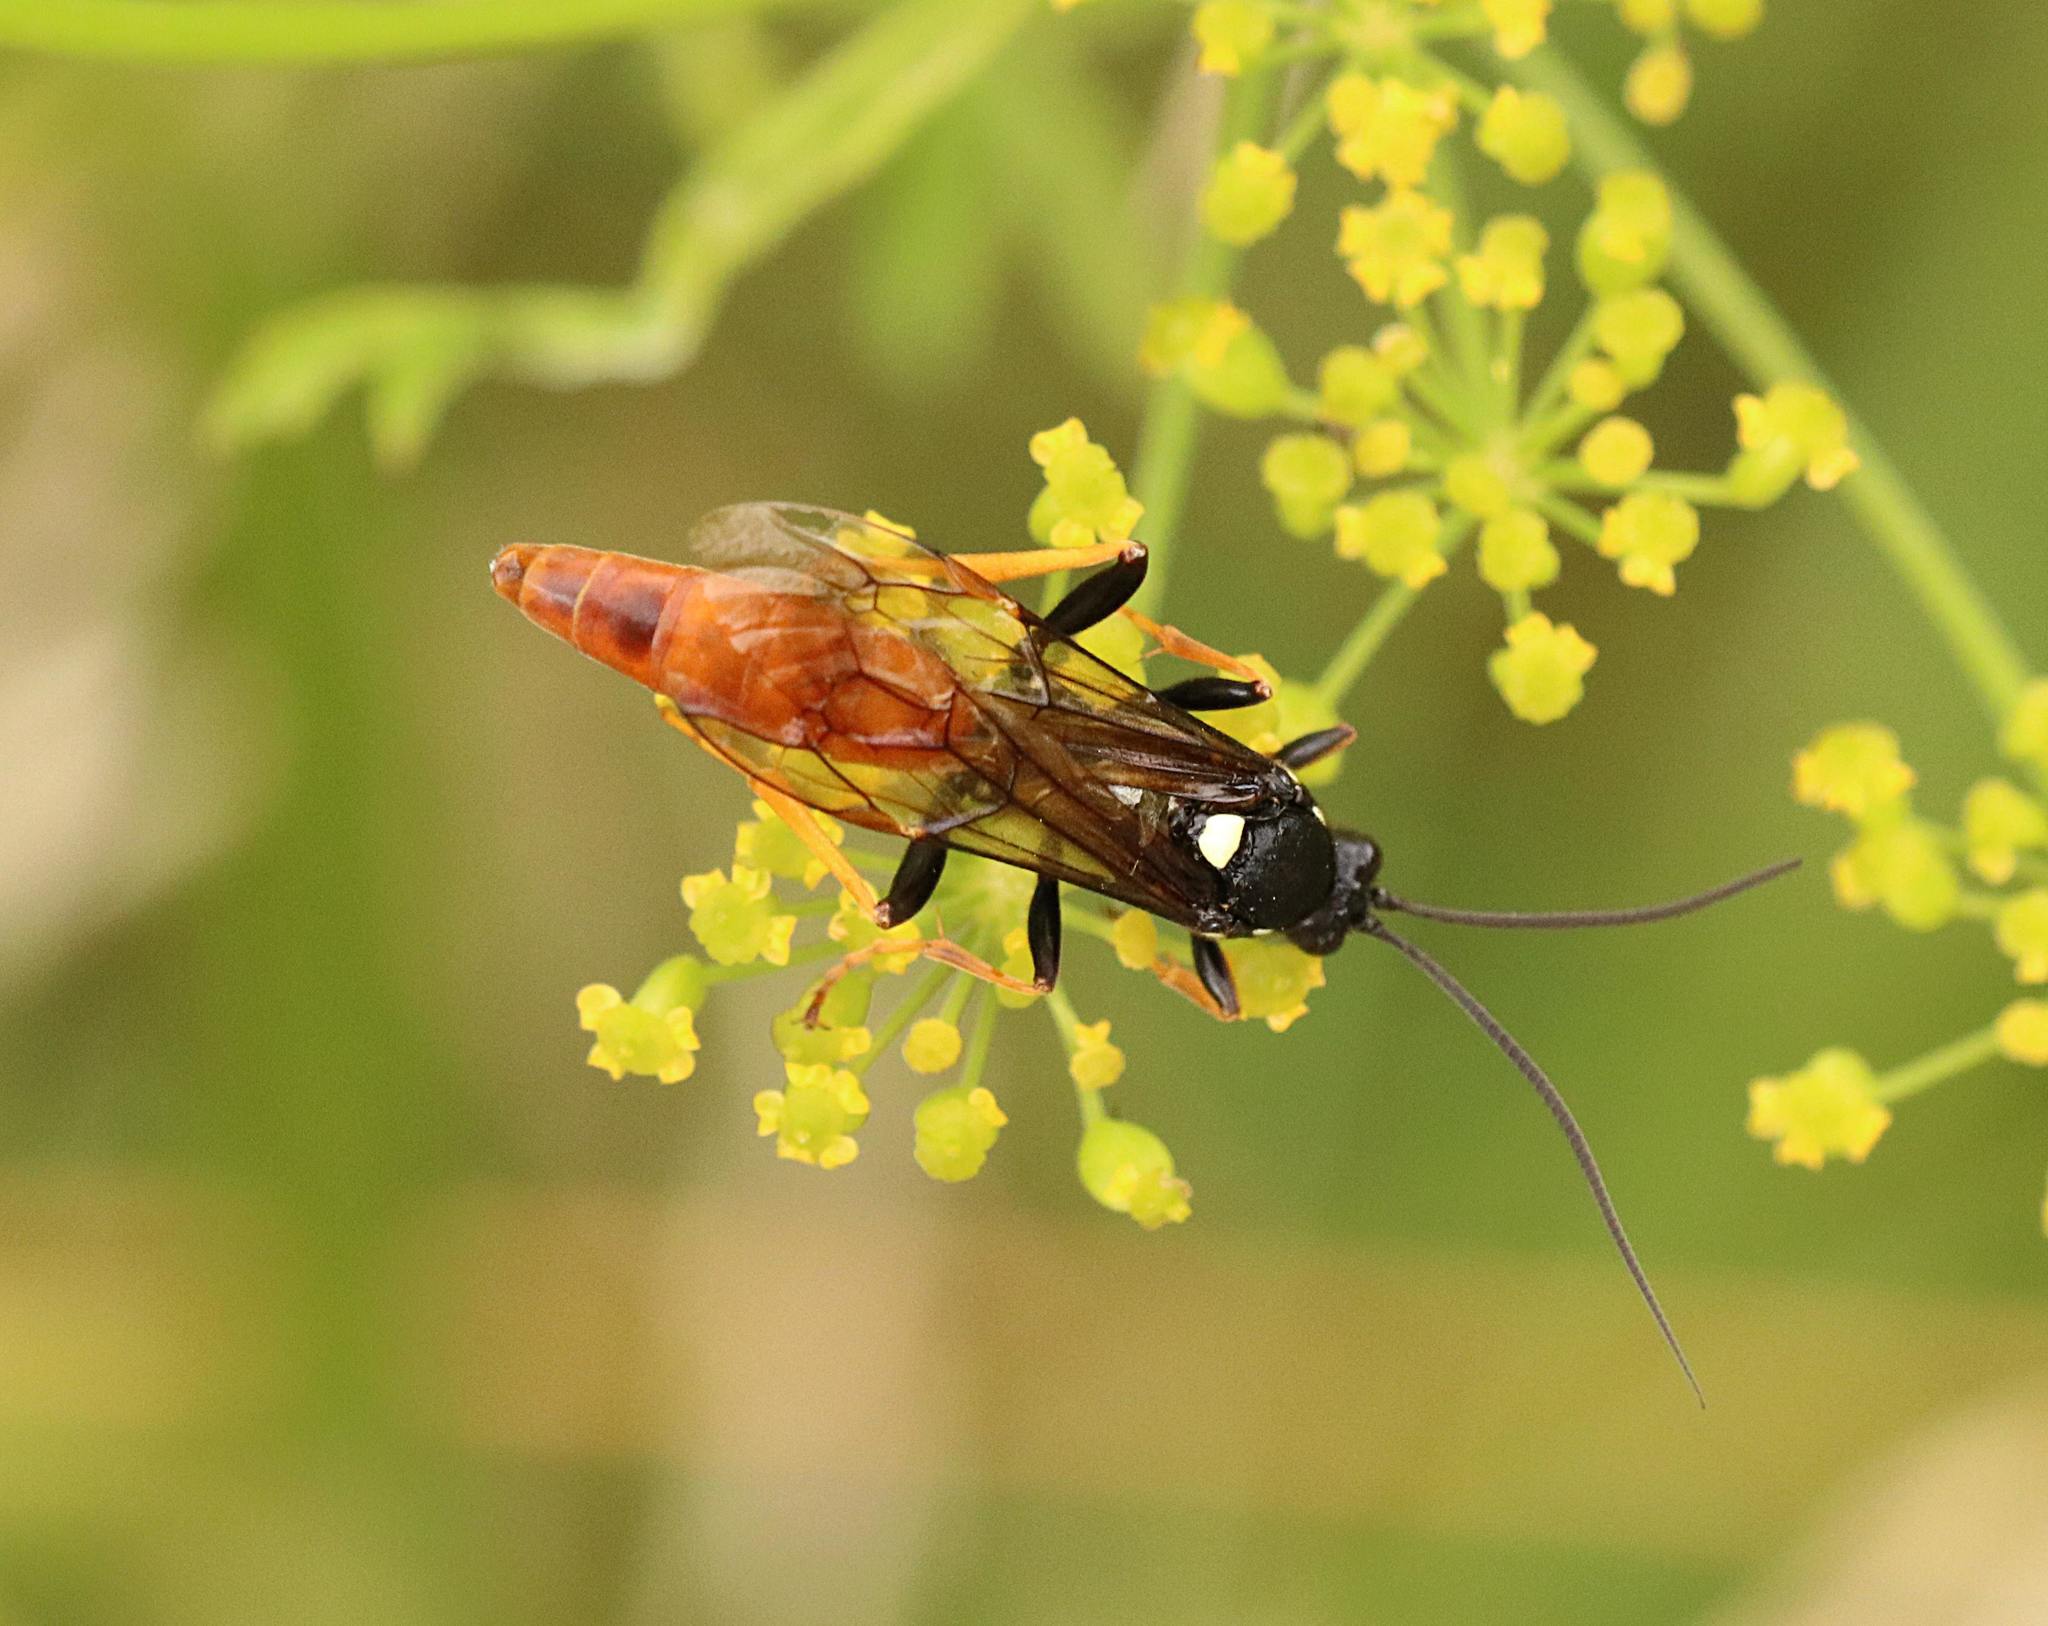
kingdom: Animalia
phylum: Arthropoda
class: Insecta
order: Hymenoptera
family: Ichneumonidae
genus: Amblyjoppa
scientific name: Amblyjoppa fuscipennis
